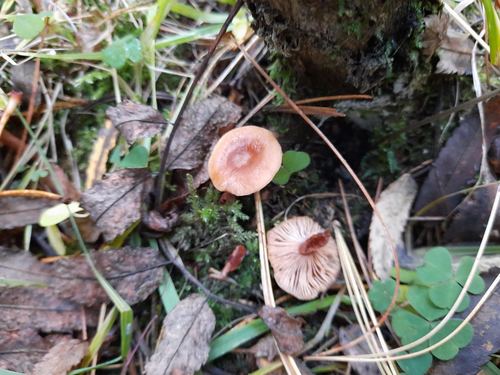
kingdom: Fungi
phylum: Basidiomycota
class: Agaricomycetes
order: Russulales
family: Russulaceae
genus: Lactarius
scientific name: Lactarius
